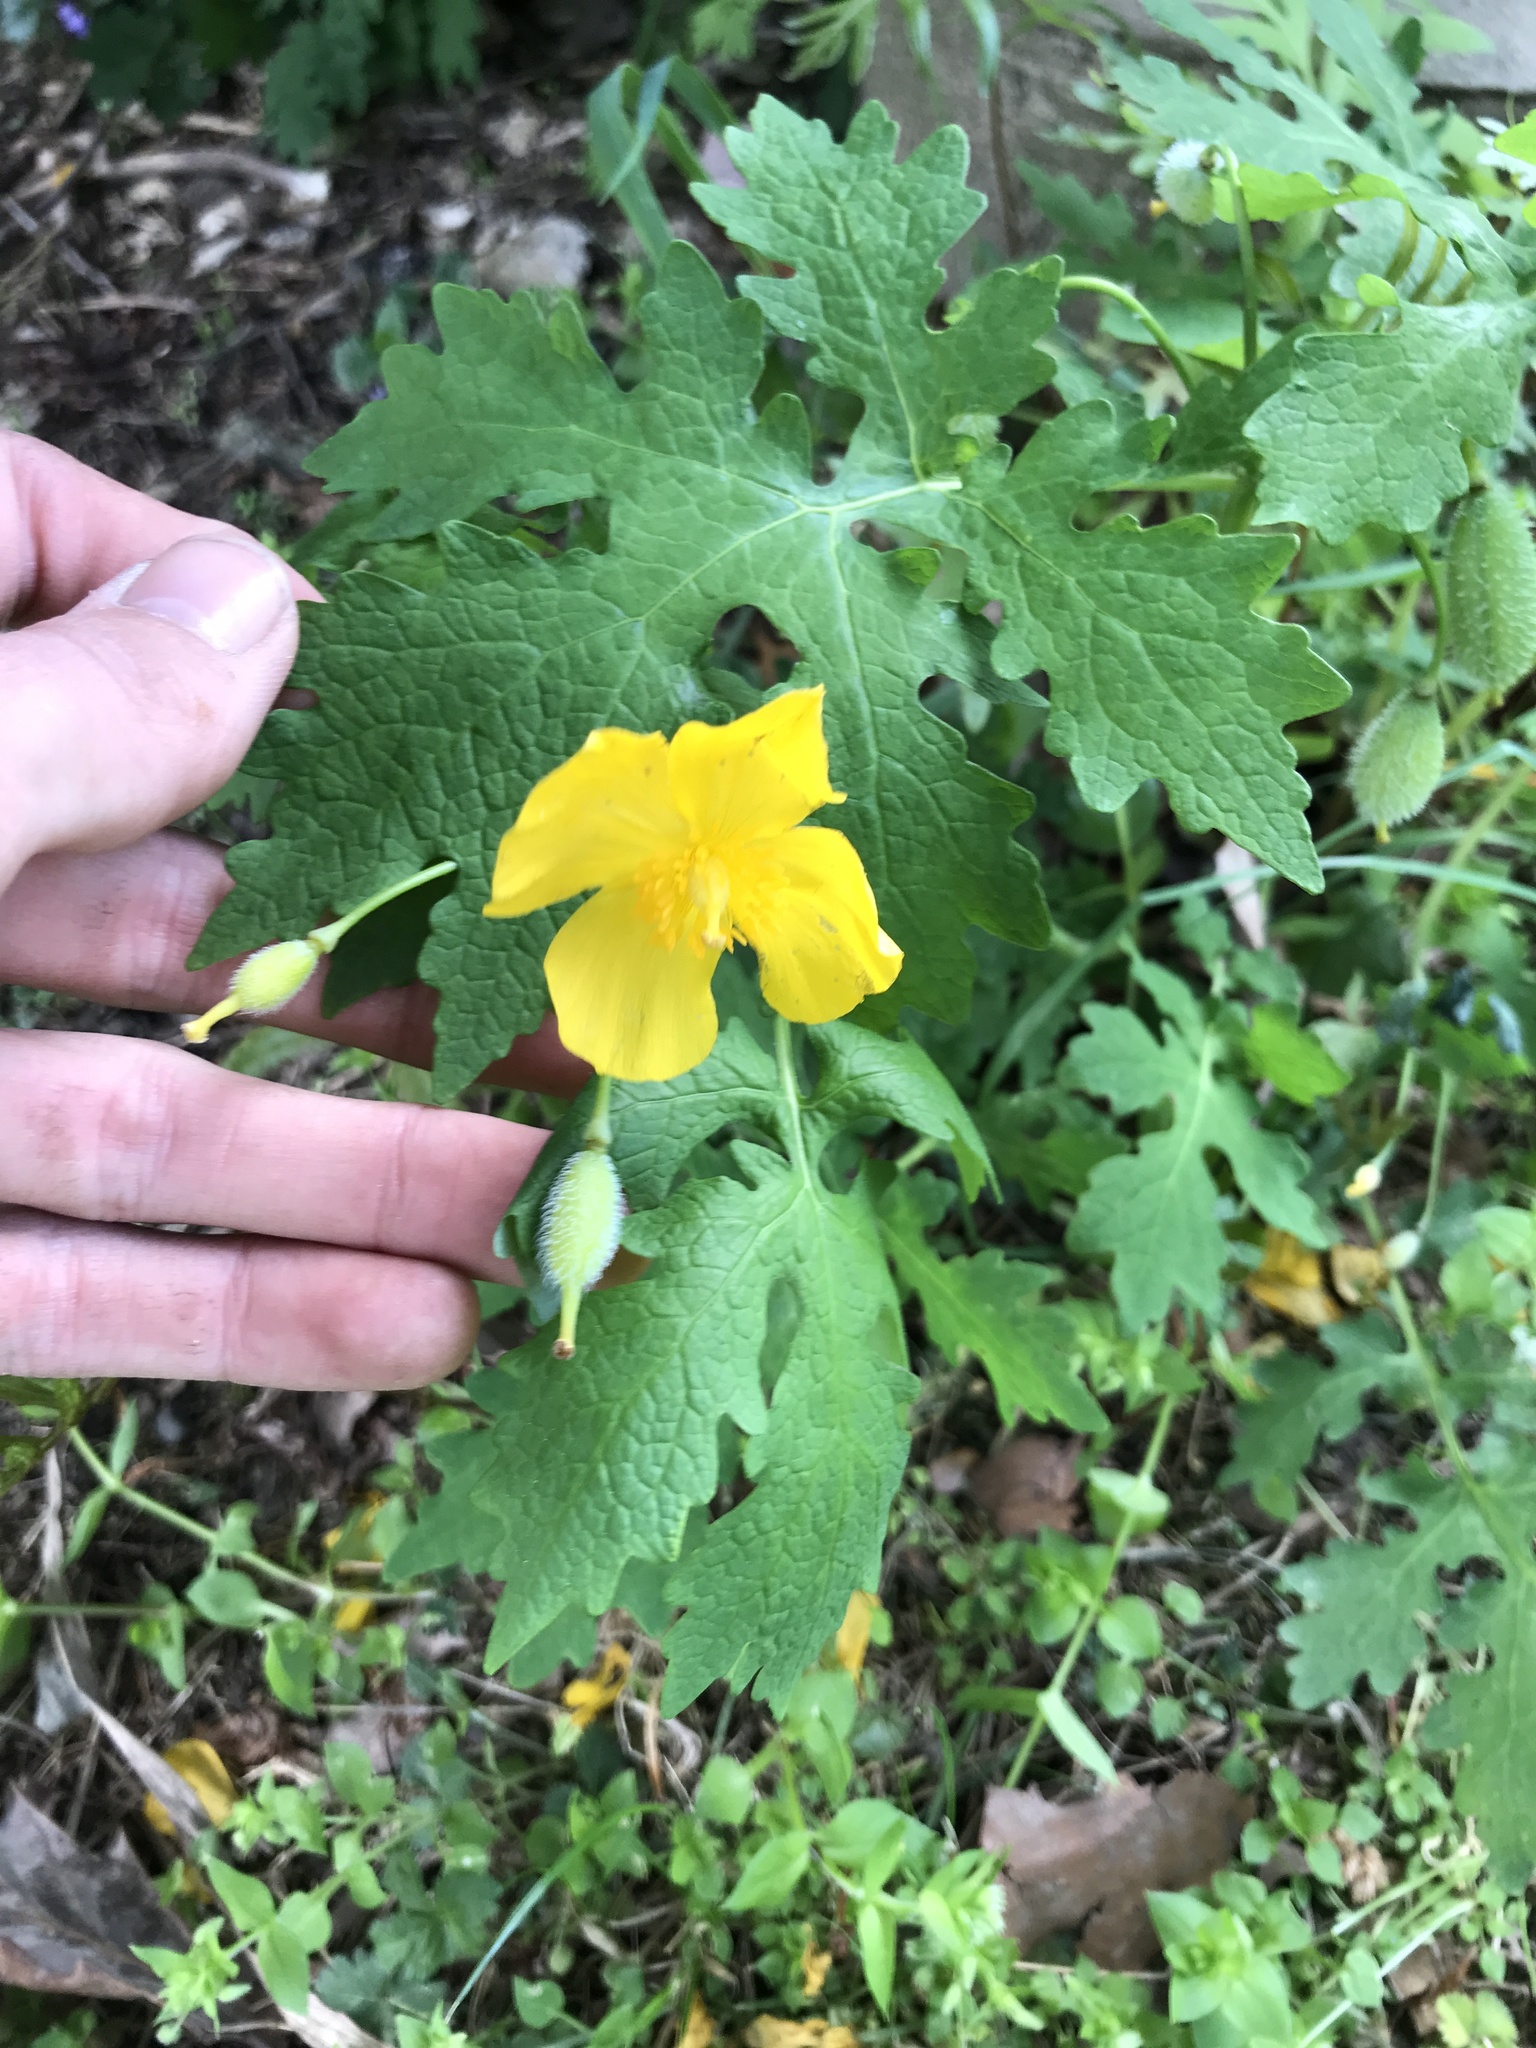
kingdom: Plantae
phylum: Tracheophyta
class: Magnoliopsida
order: Ranunculales
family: Papaveraceae
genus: Stylophorum
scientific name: Stylophorum diphyllum
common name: Celandine poppy
